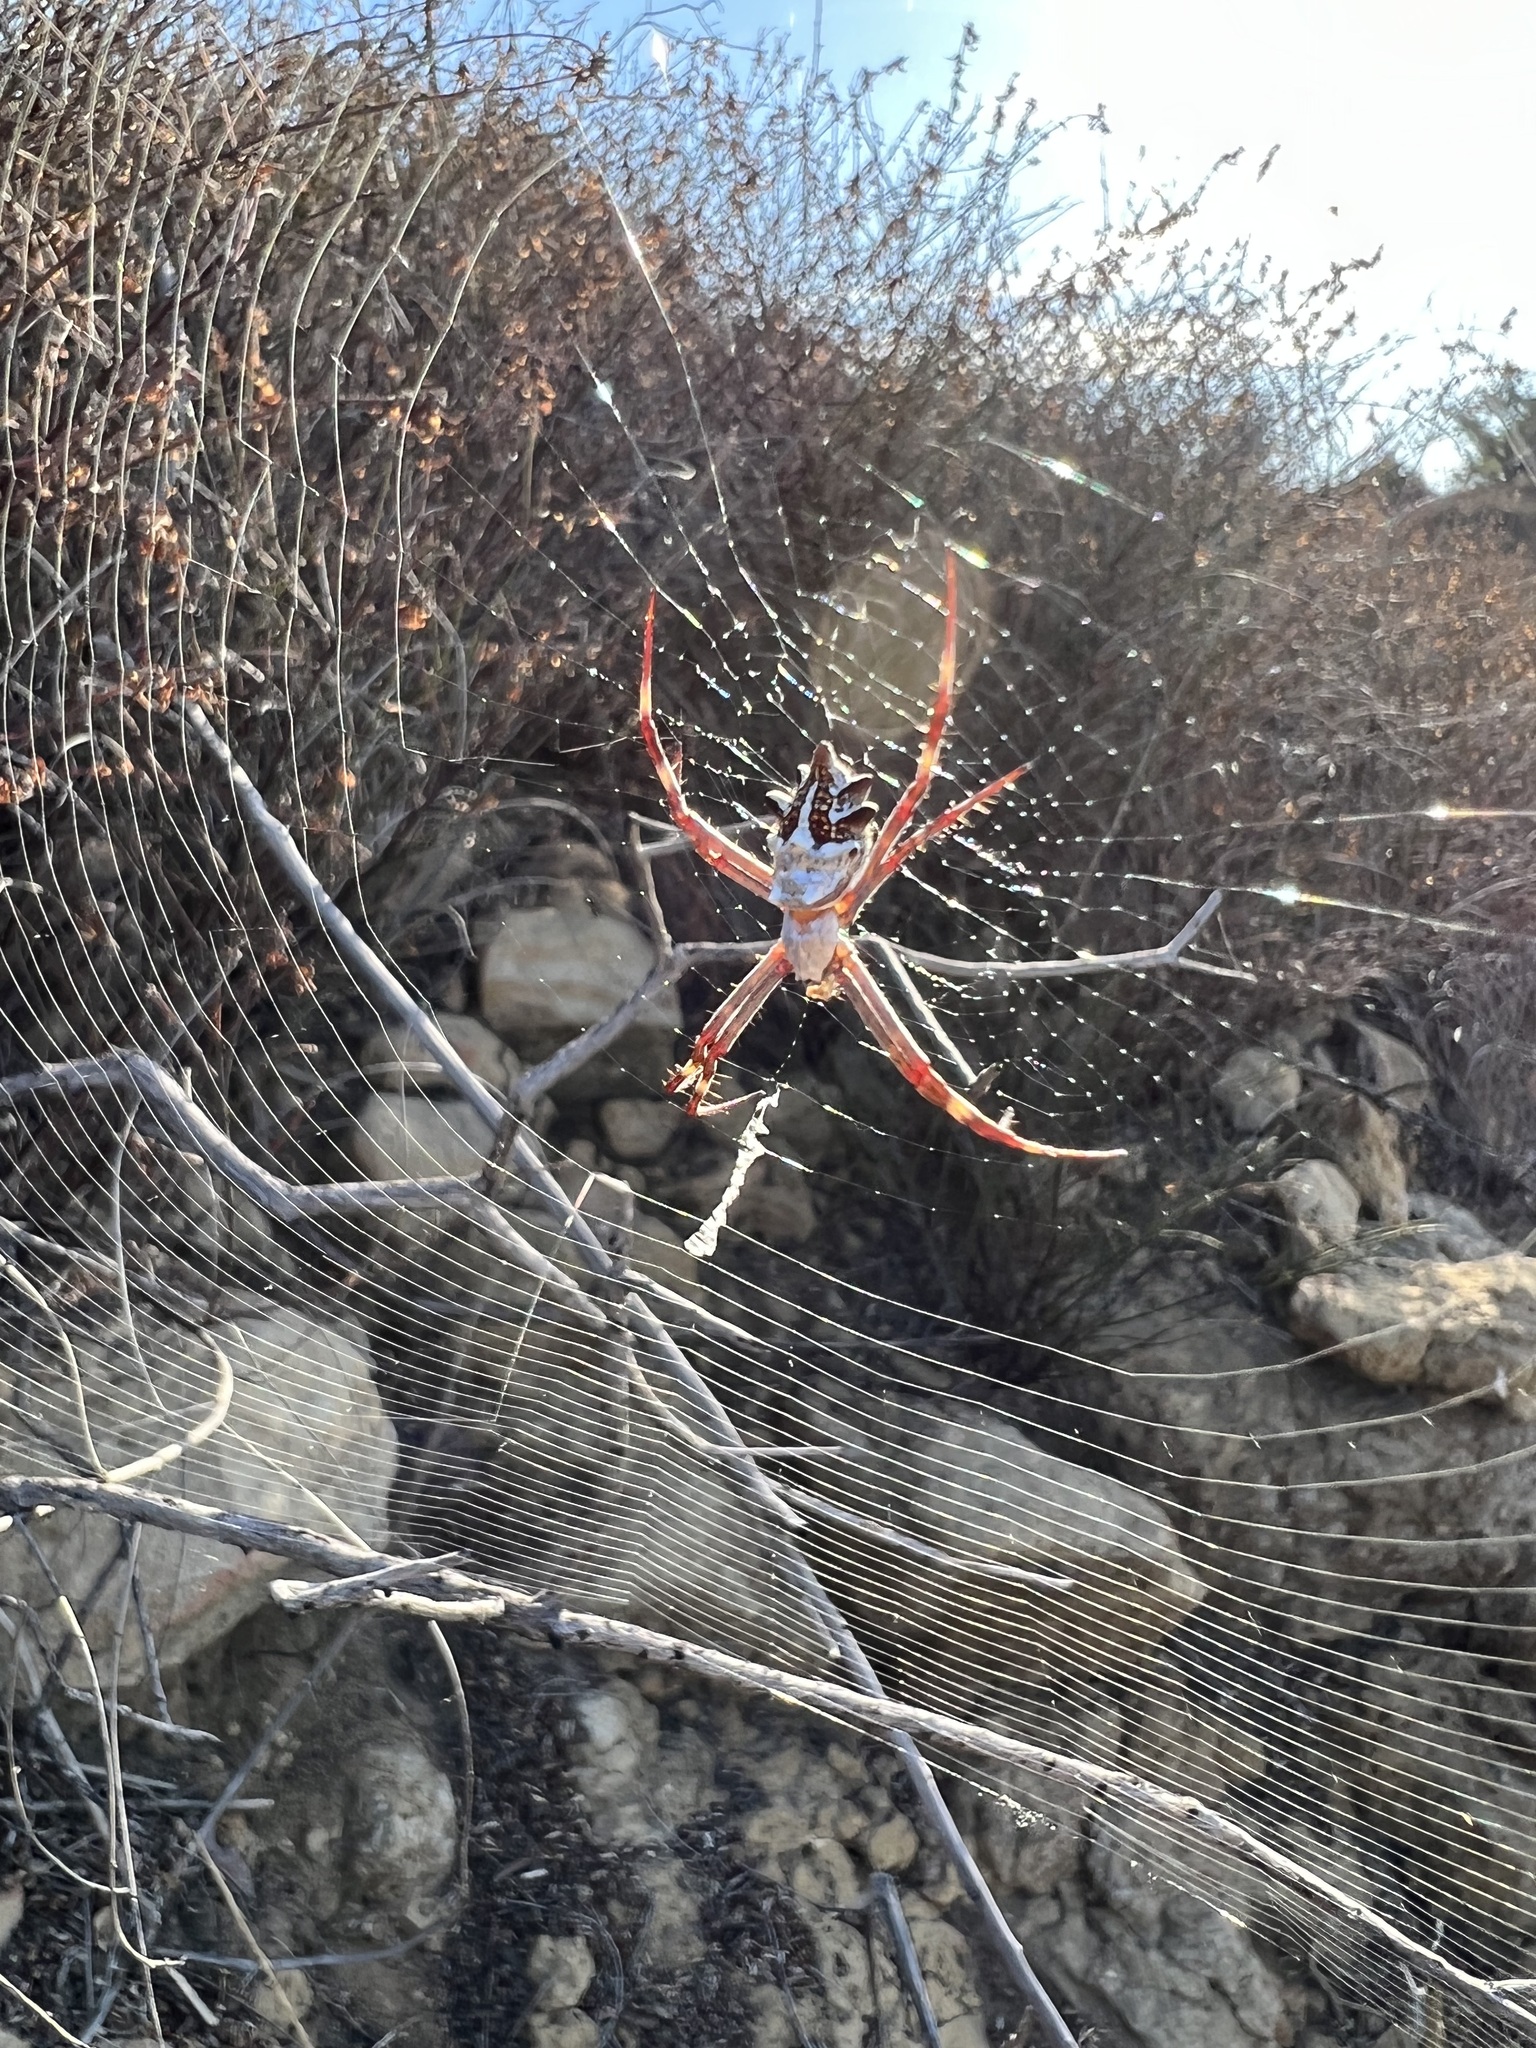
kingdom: Animalia
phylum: Arthropoda
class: Arachnida
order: Araneae
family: Araneidae
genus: Argiope
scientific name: Argiope argentata
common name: Orb weavers
